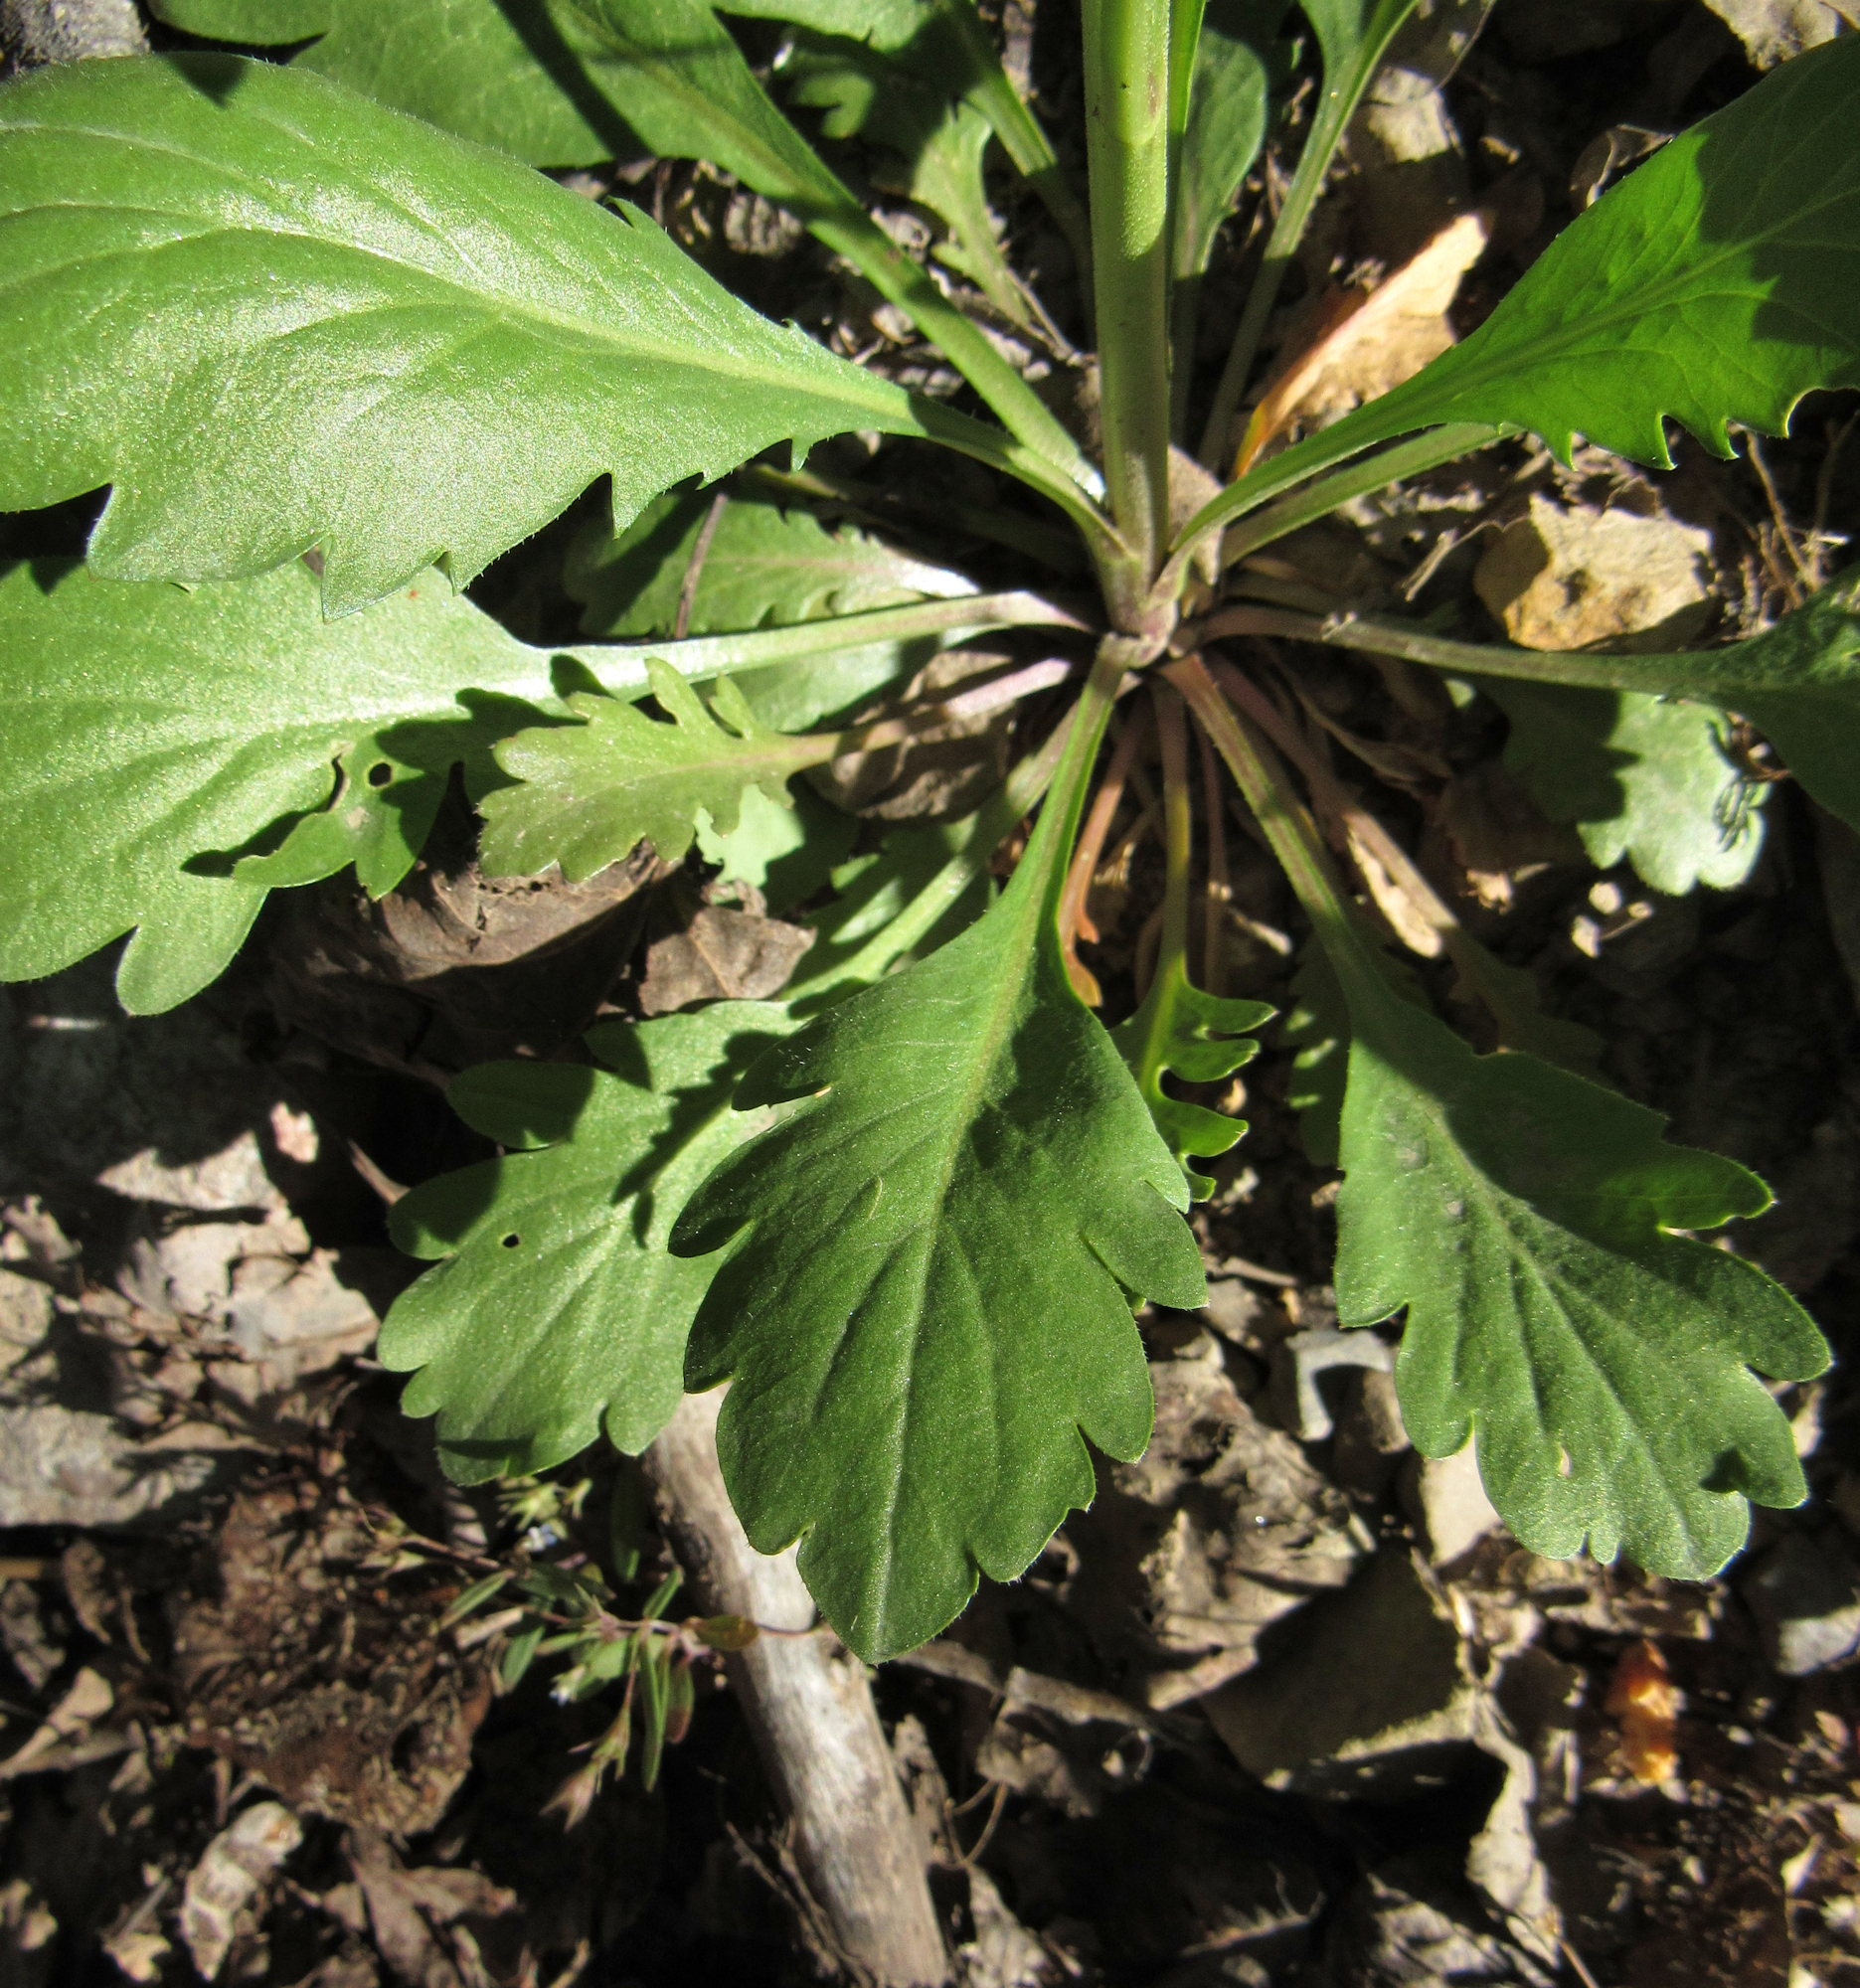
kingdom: Plantae
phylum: Tracheophyta
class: Magnoliopsida
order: Brassicales
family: Brassicaceae
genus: Lepidium
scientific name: Lepidium virginicum
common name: Least pepperwort
